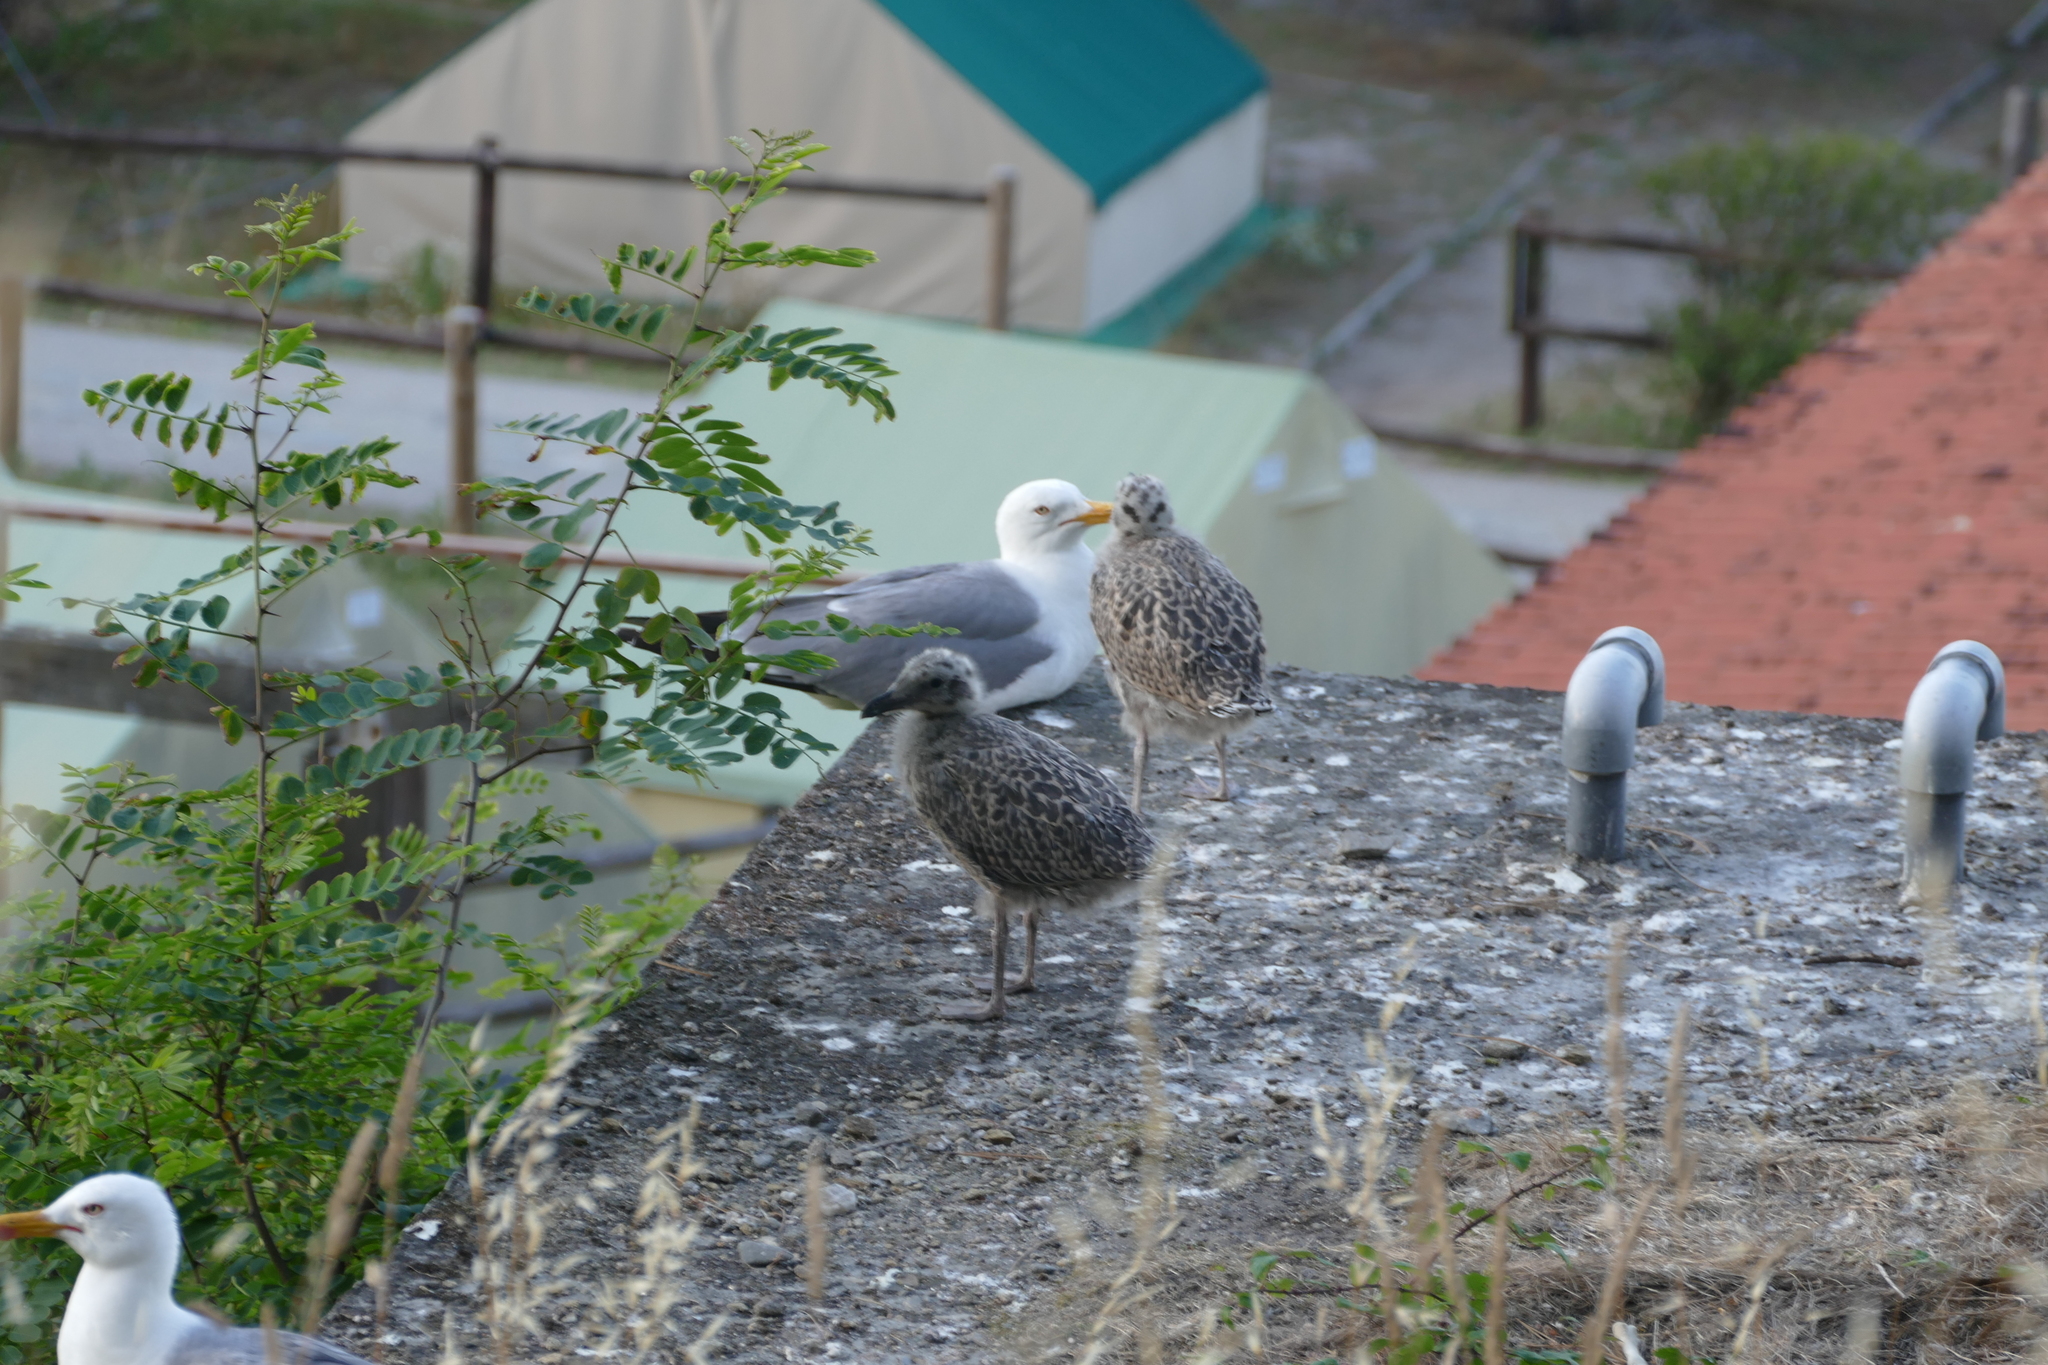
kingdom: Animalia
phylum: Chordata
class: Aves
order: Charadriiformes
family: Laridae
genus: Larus
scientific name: Larus michahellis
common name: Yellow-legged gull
